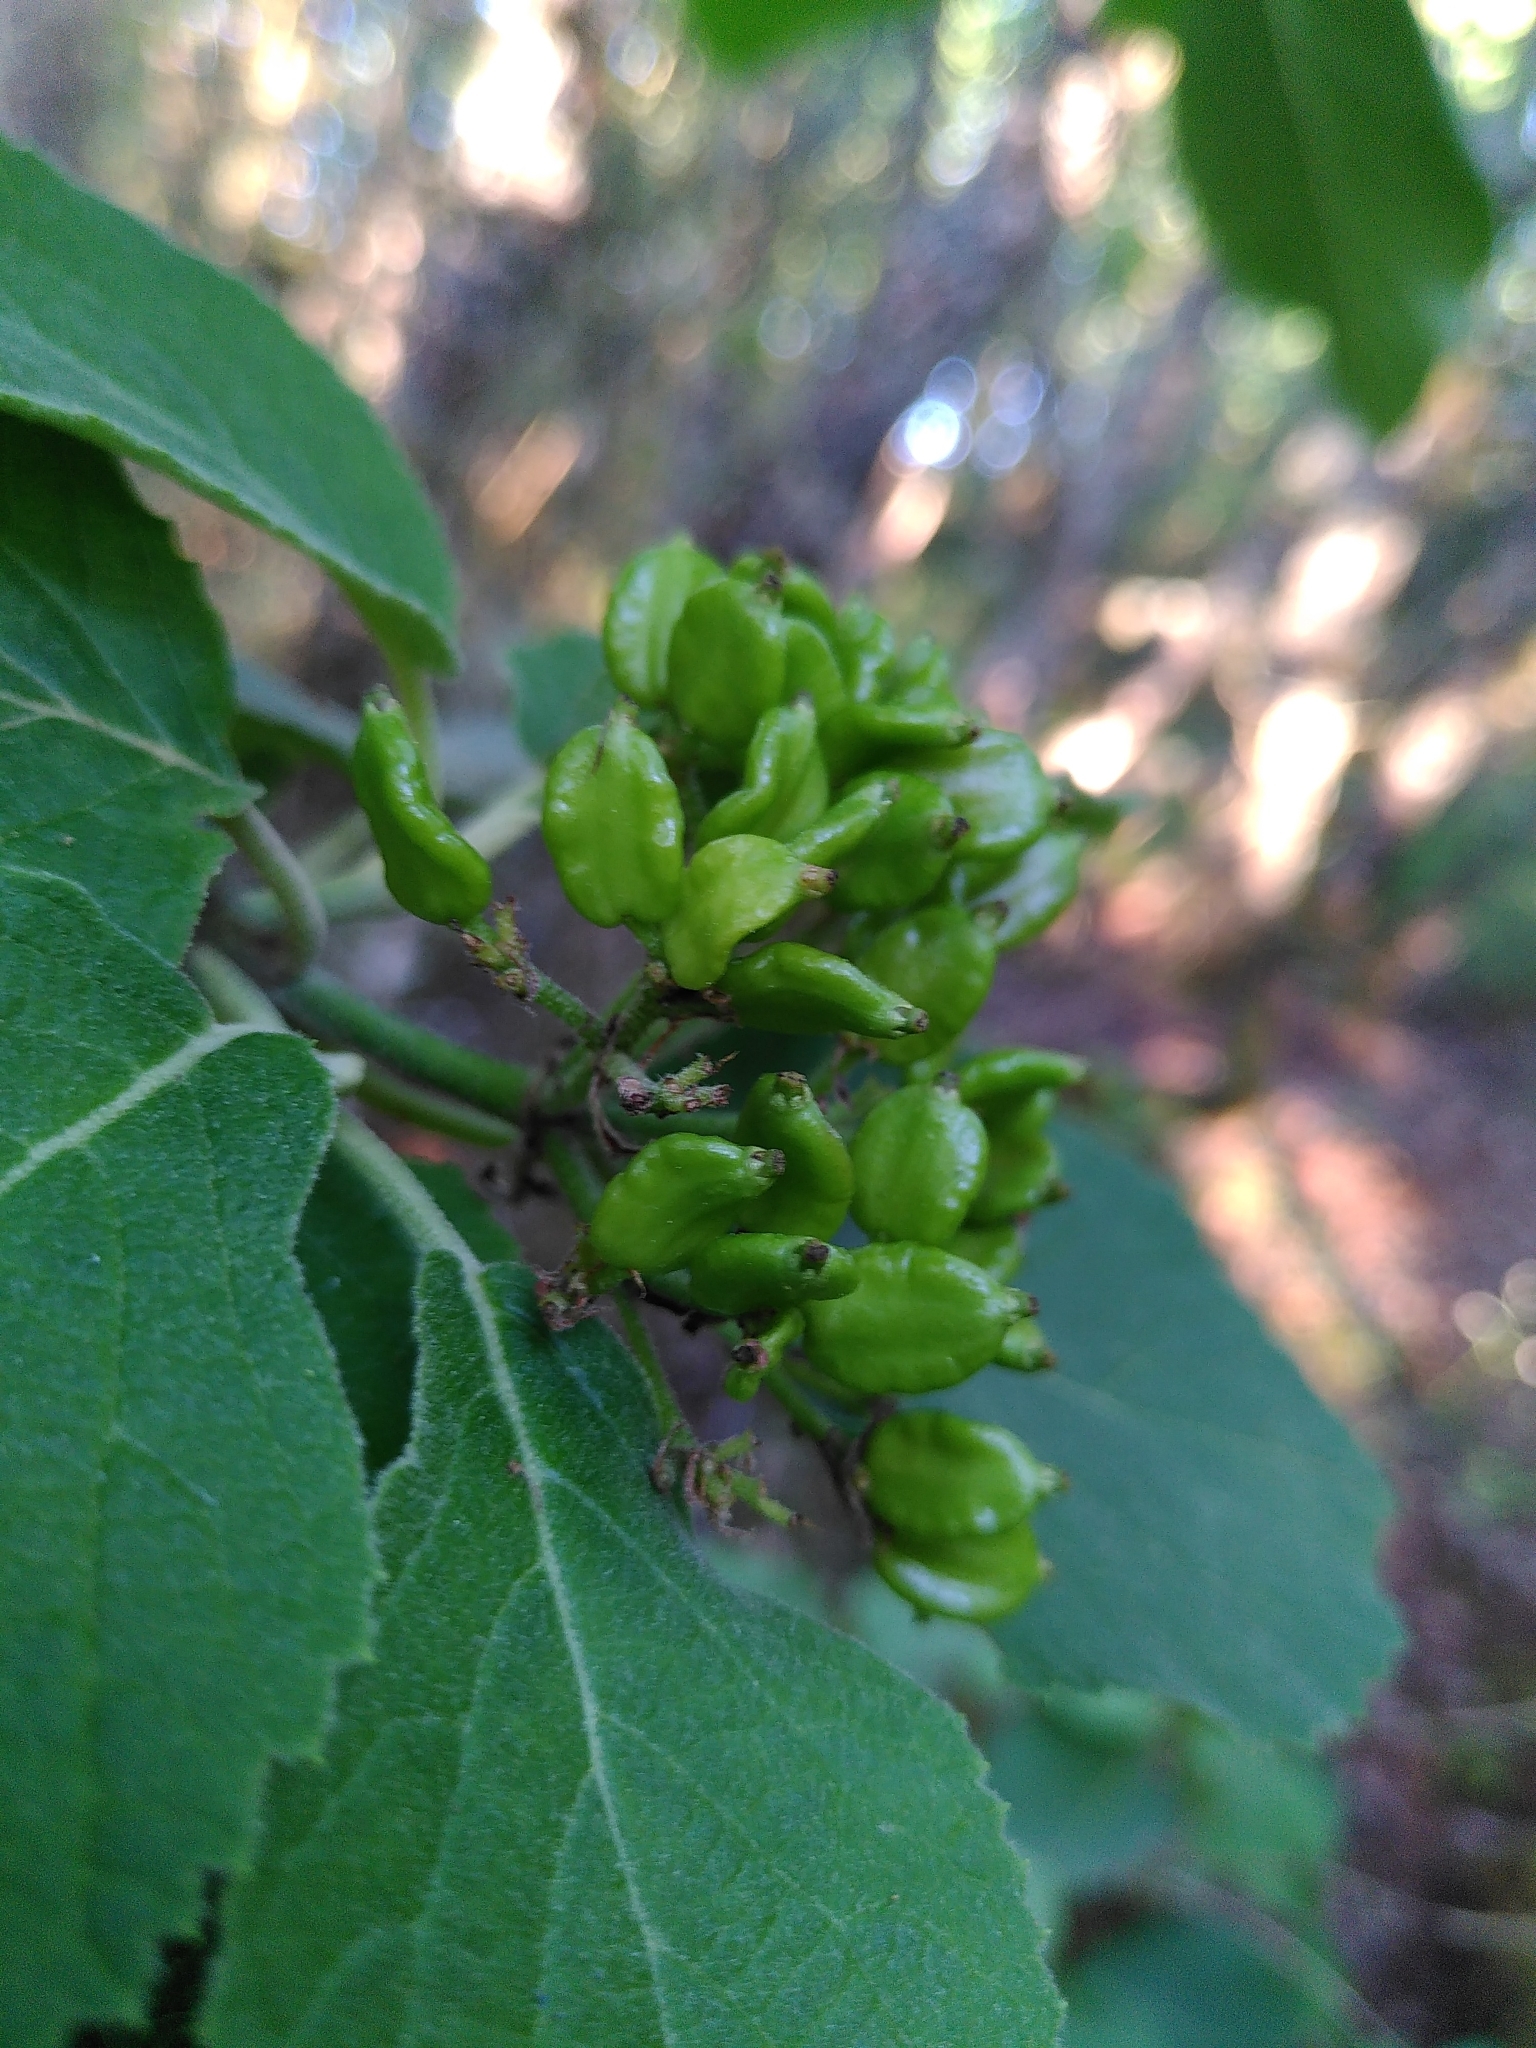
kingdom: Plantae
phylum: Tracheophyta
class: Magnoliopsida
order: Dipsacales
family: Viburnaceae
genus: Viburnum
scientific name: Viburnum lantana
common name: Wayfaring tree
